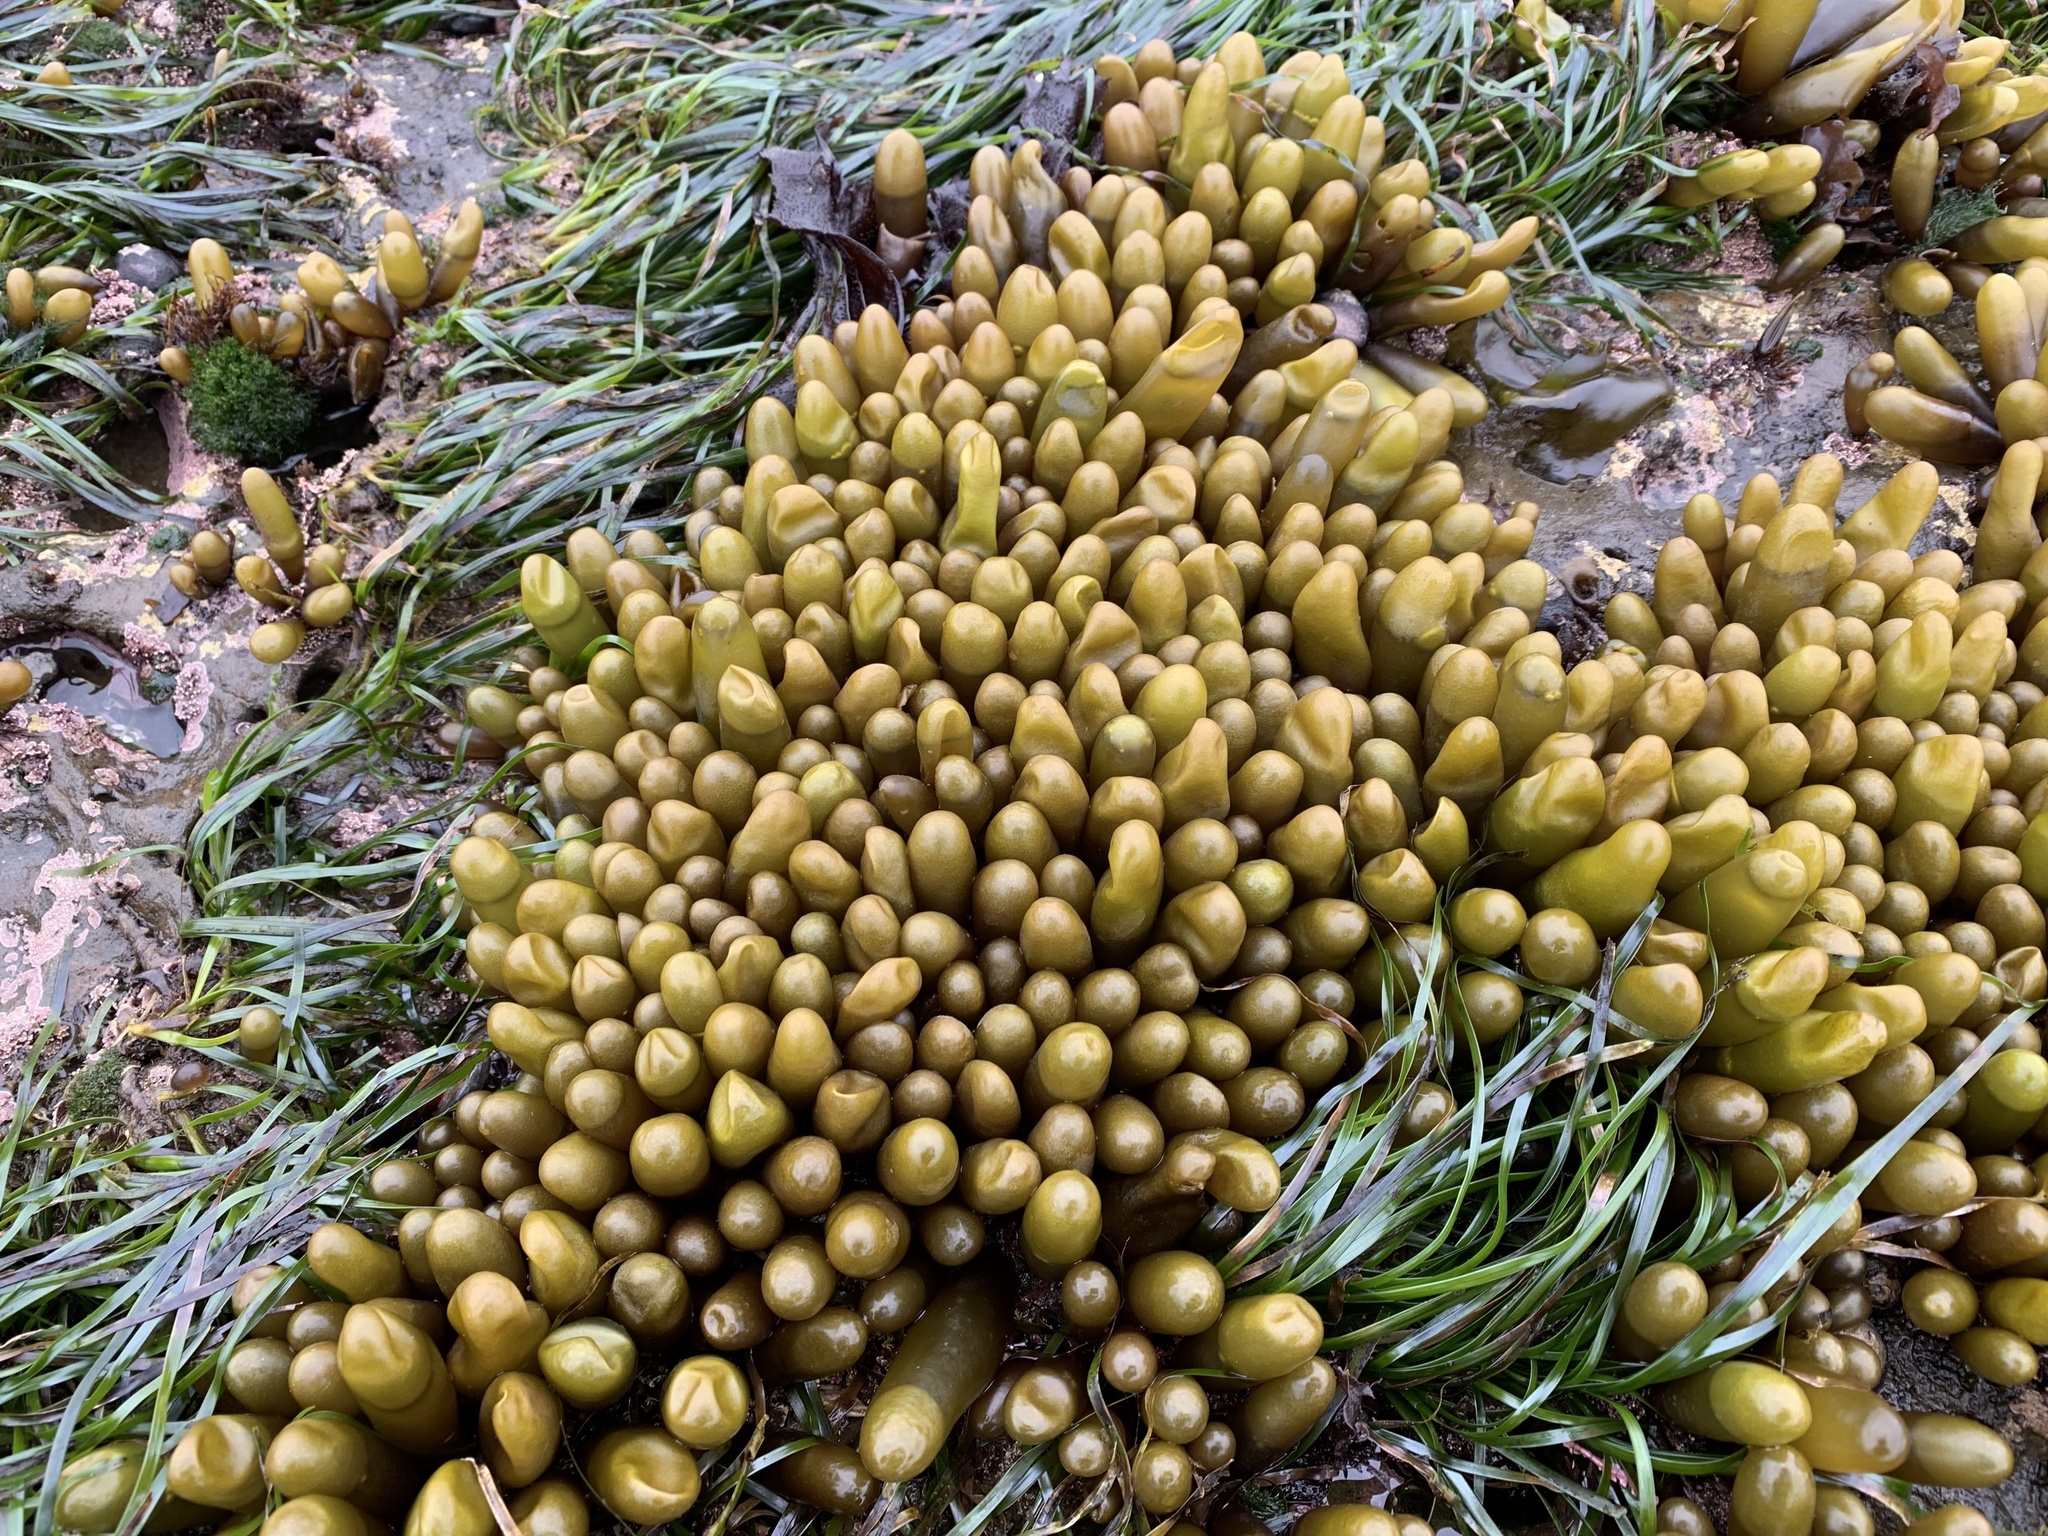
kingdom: Plantae
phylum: Rhodophyta
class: Florideophyceae
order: Palmariales
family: Palmariaceae
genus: Halosaccion
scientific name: Halosaccion glandiforme
